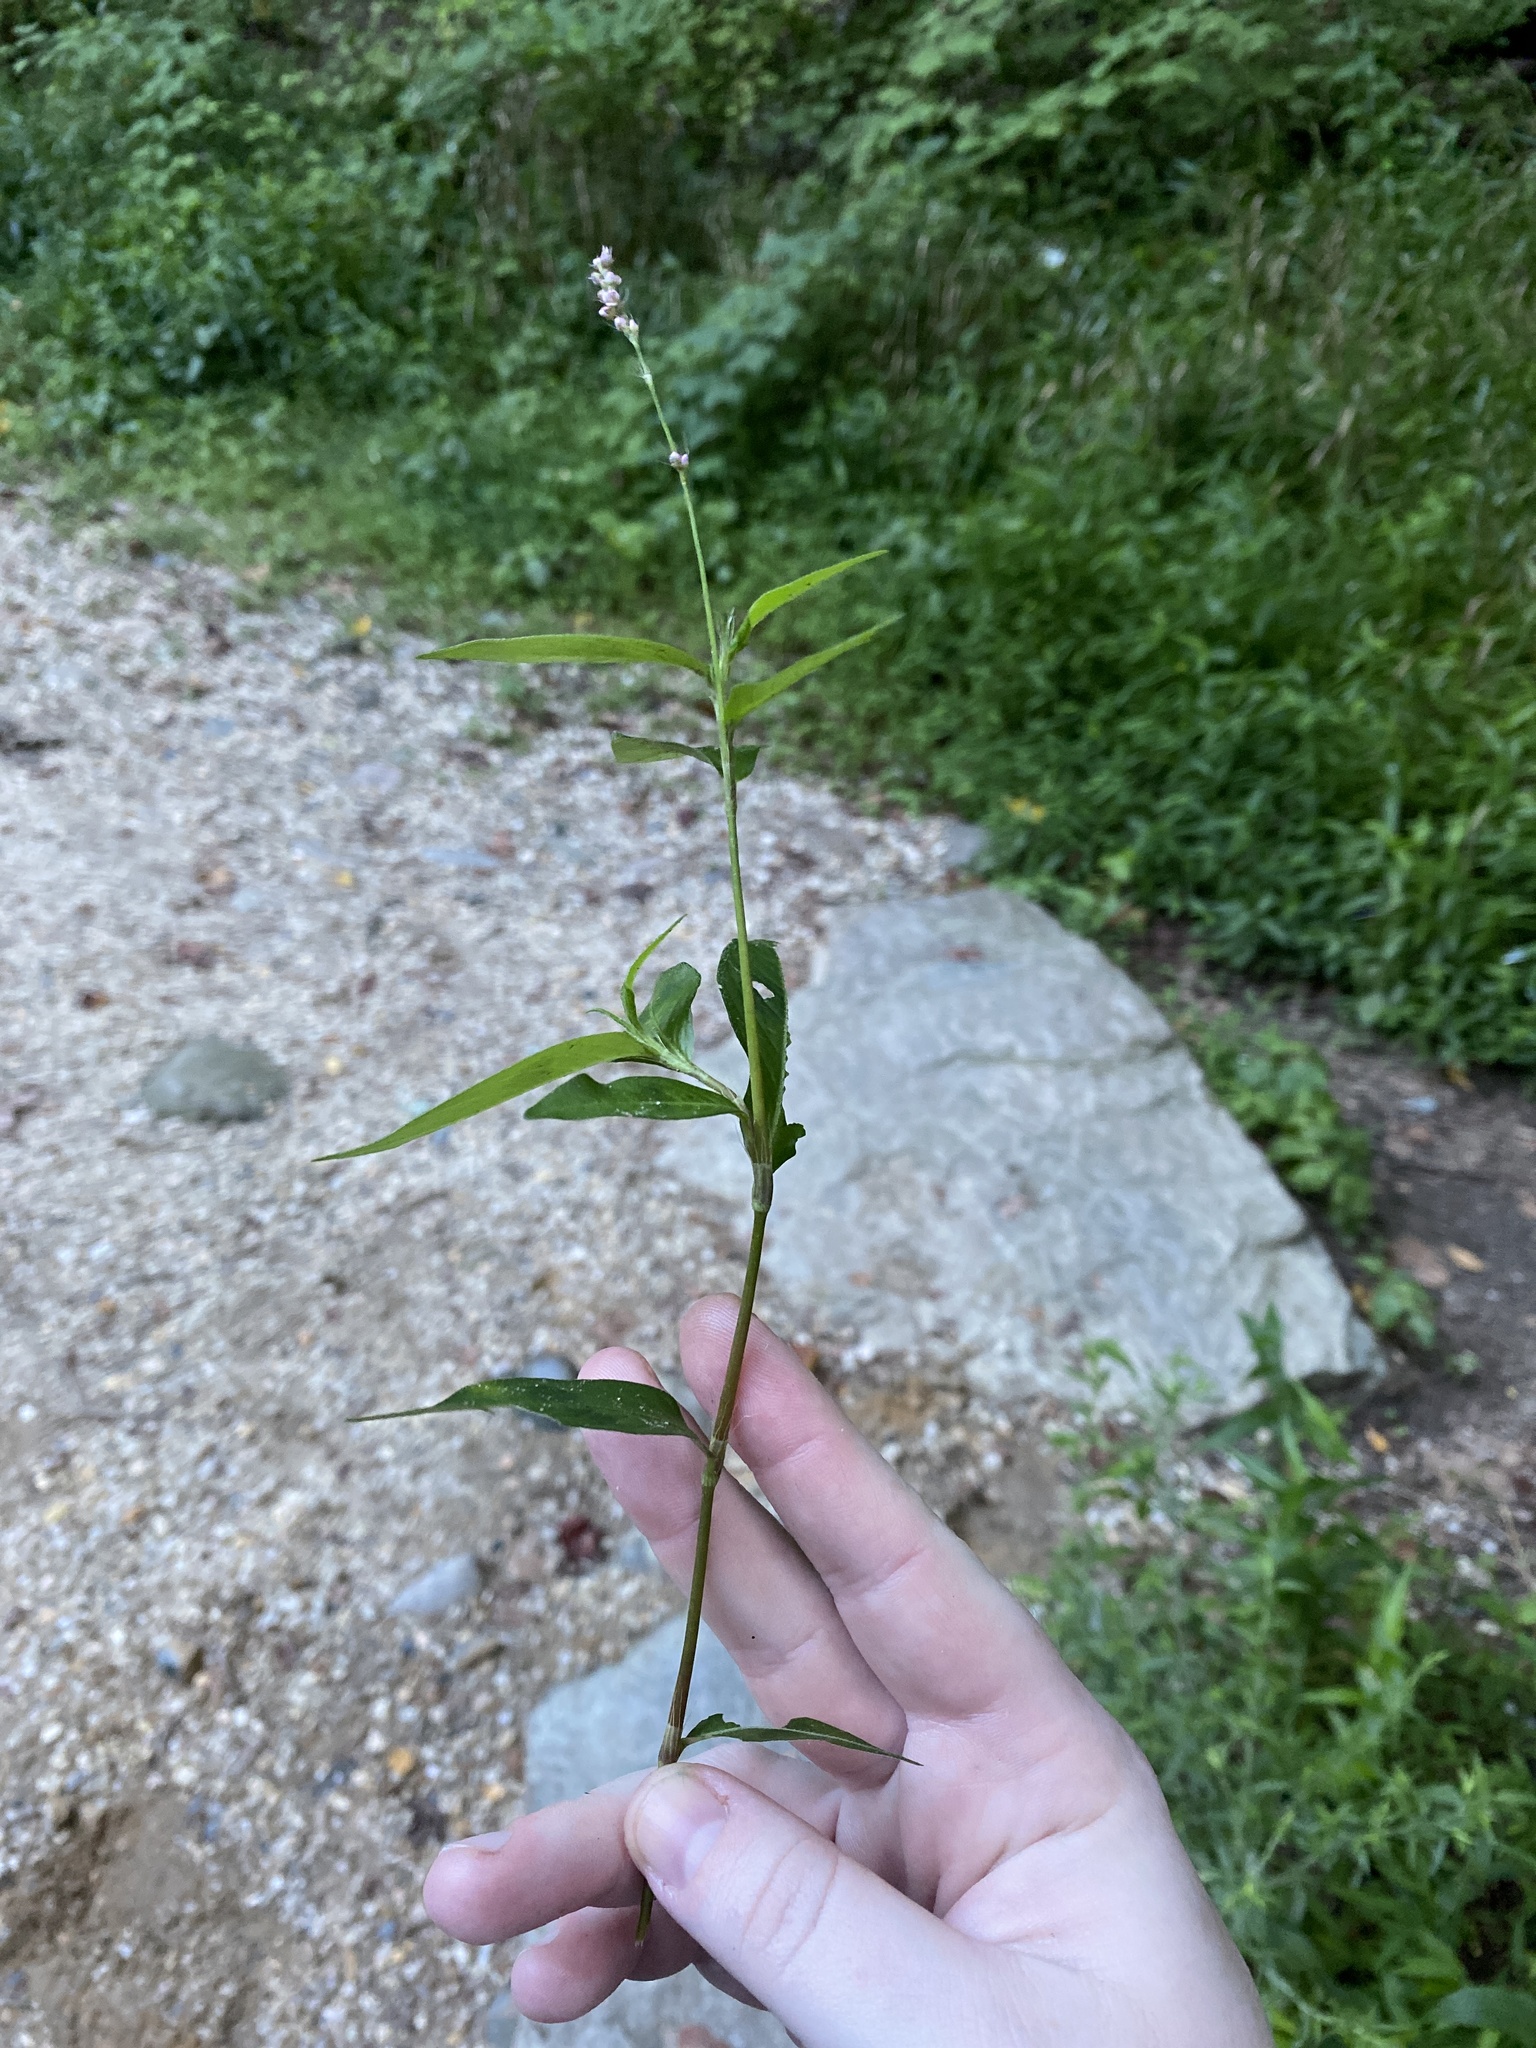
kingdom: Plantae
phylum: Tracheophyta
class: Magnoliopsida
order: Caryophyllales
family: Polygonaceae
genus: Persicaria
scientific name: Persicaria longiseta
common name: Bristly lady's-thumb
